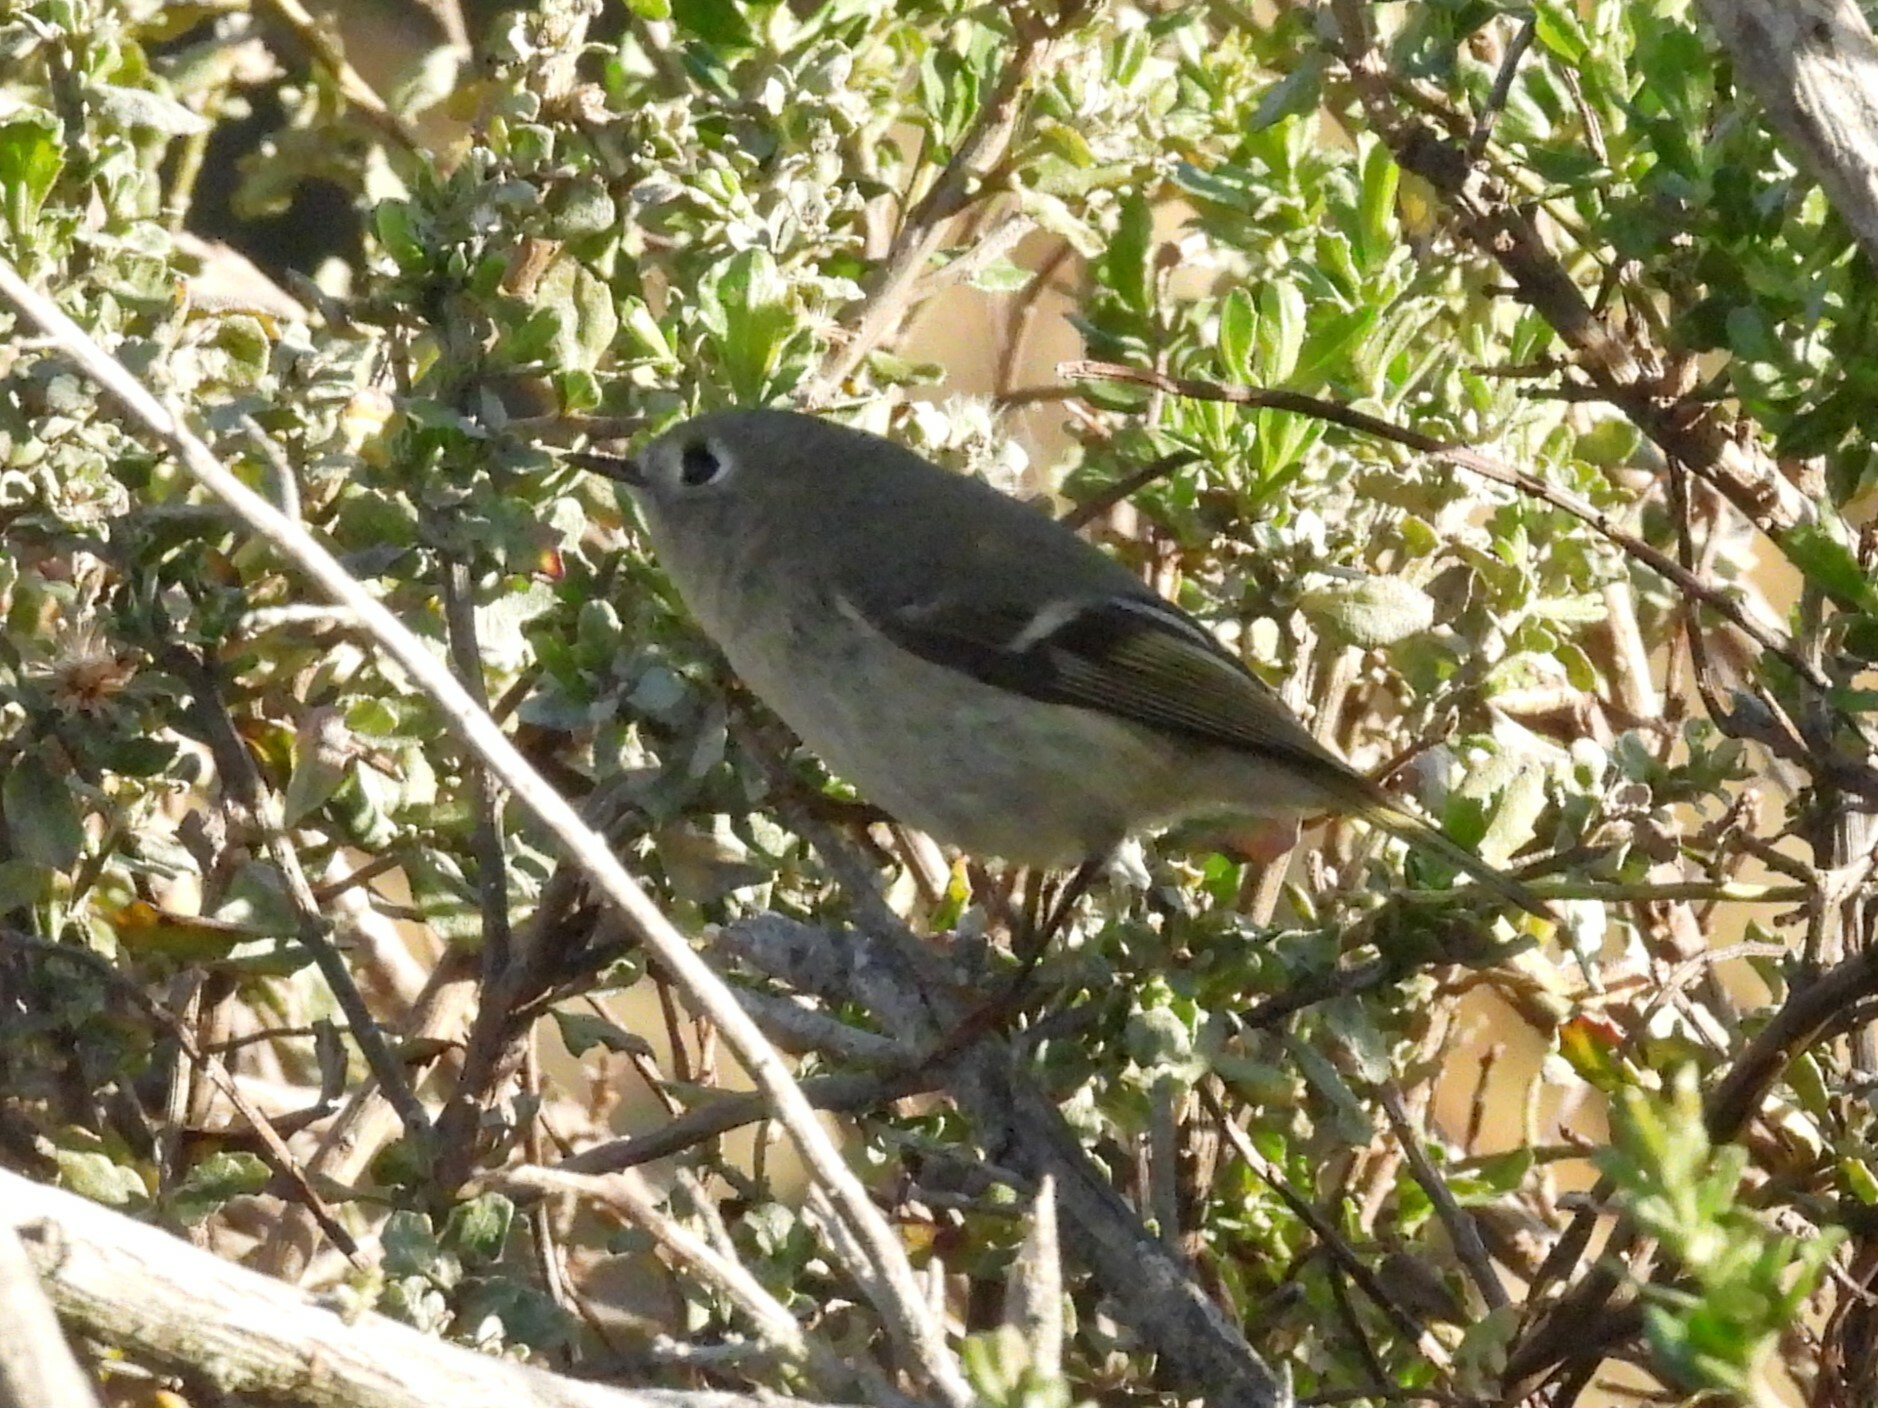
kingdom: Animalia
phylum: Chordata
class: Aves
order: Passeriformes
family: Regulidae
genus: Regulus
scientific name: Regulus calendula
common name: Ruby-crowned kinglet
